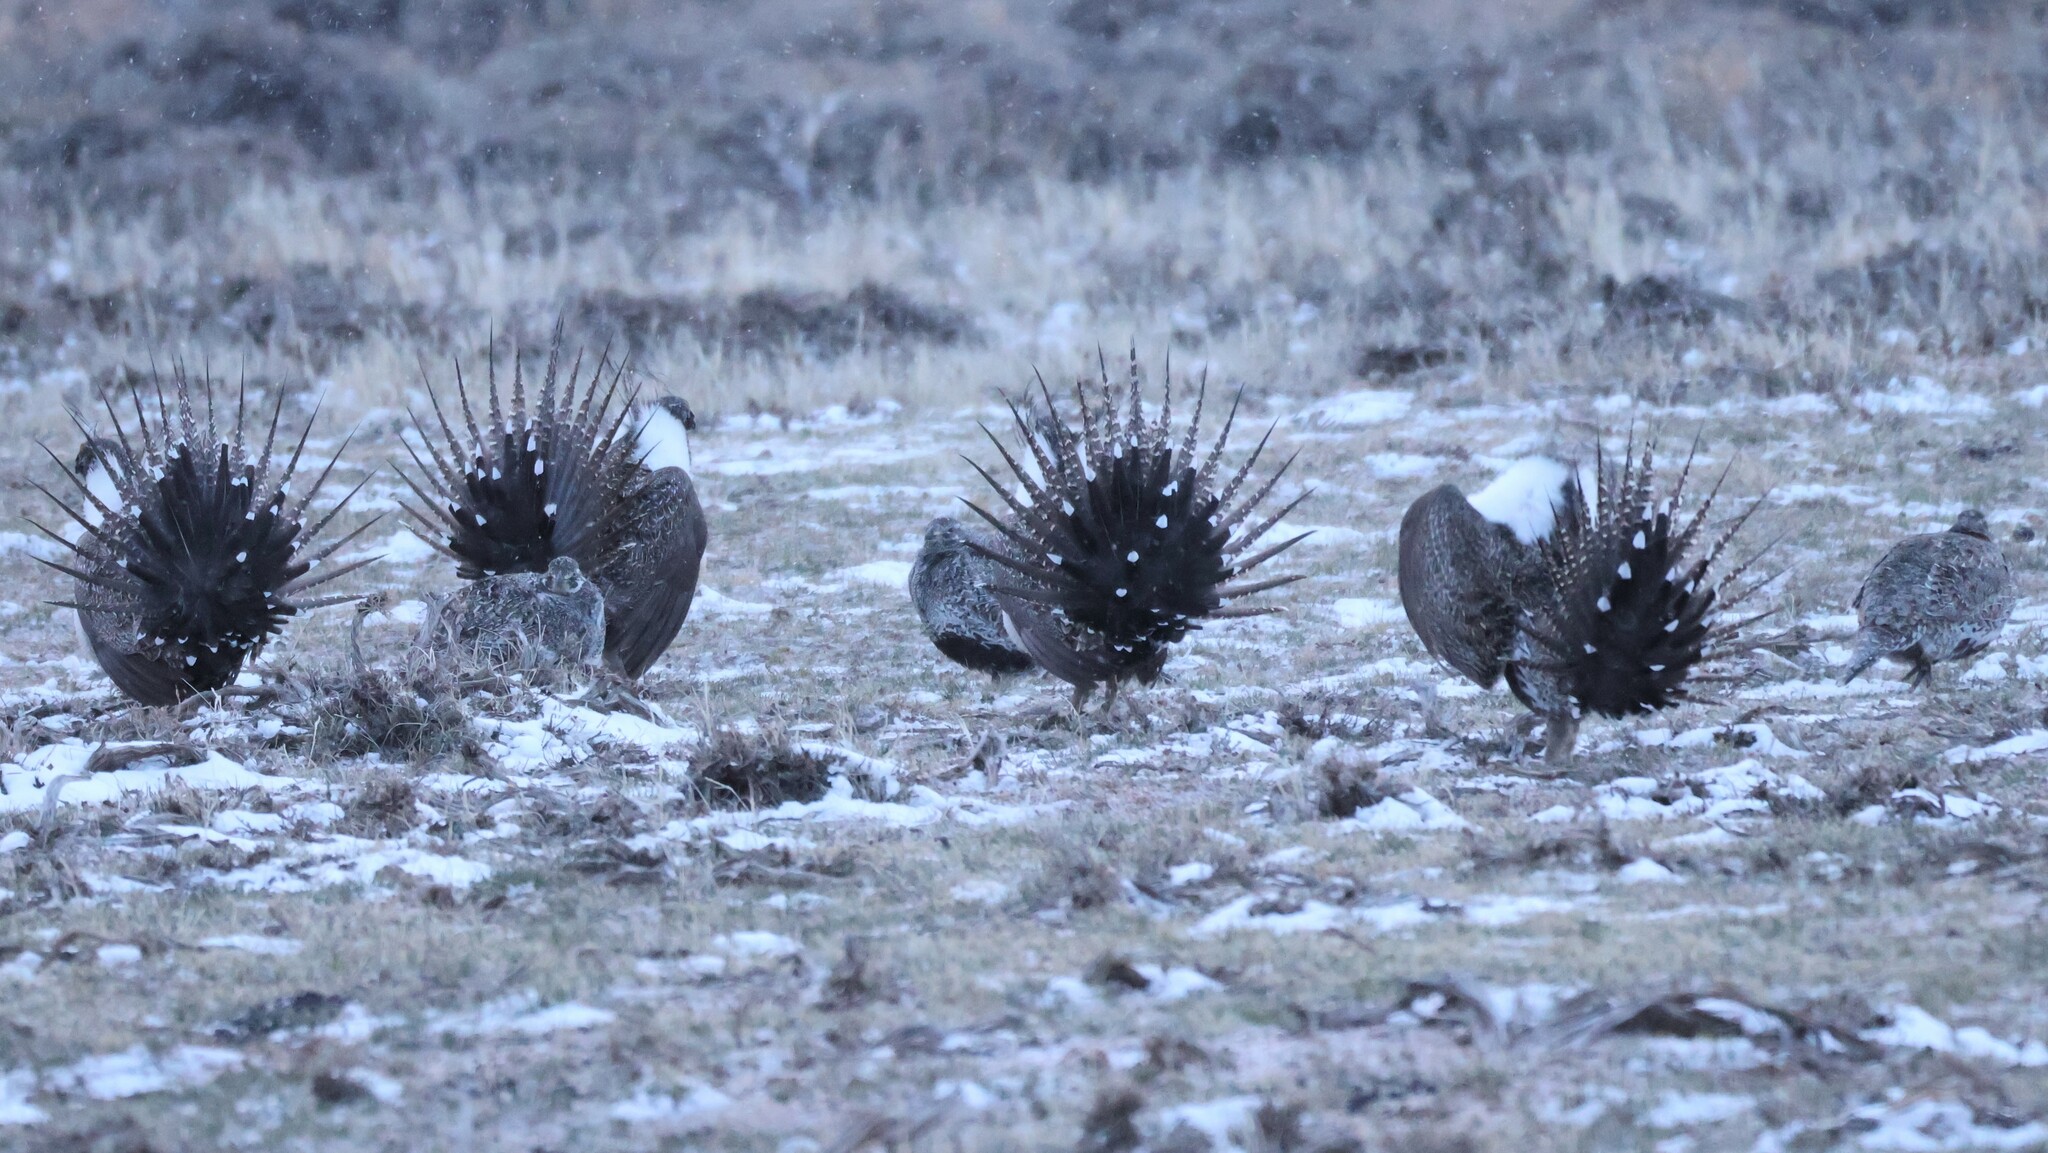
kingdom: Animalia
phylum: Chordata
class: Aves
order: Galliformes
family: Phasianidae
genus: Centrocercus
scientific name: Centrocercus urophasianus
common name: Sage grouse
